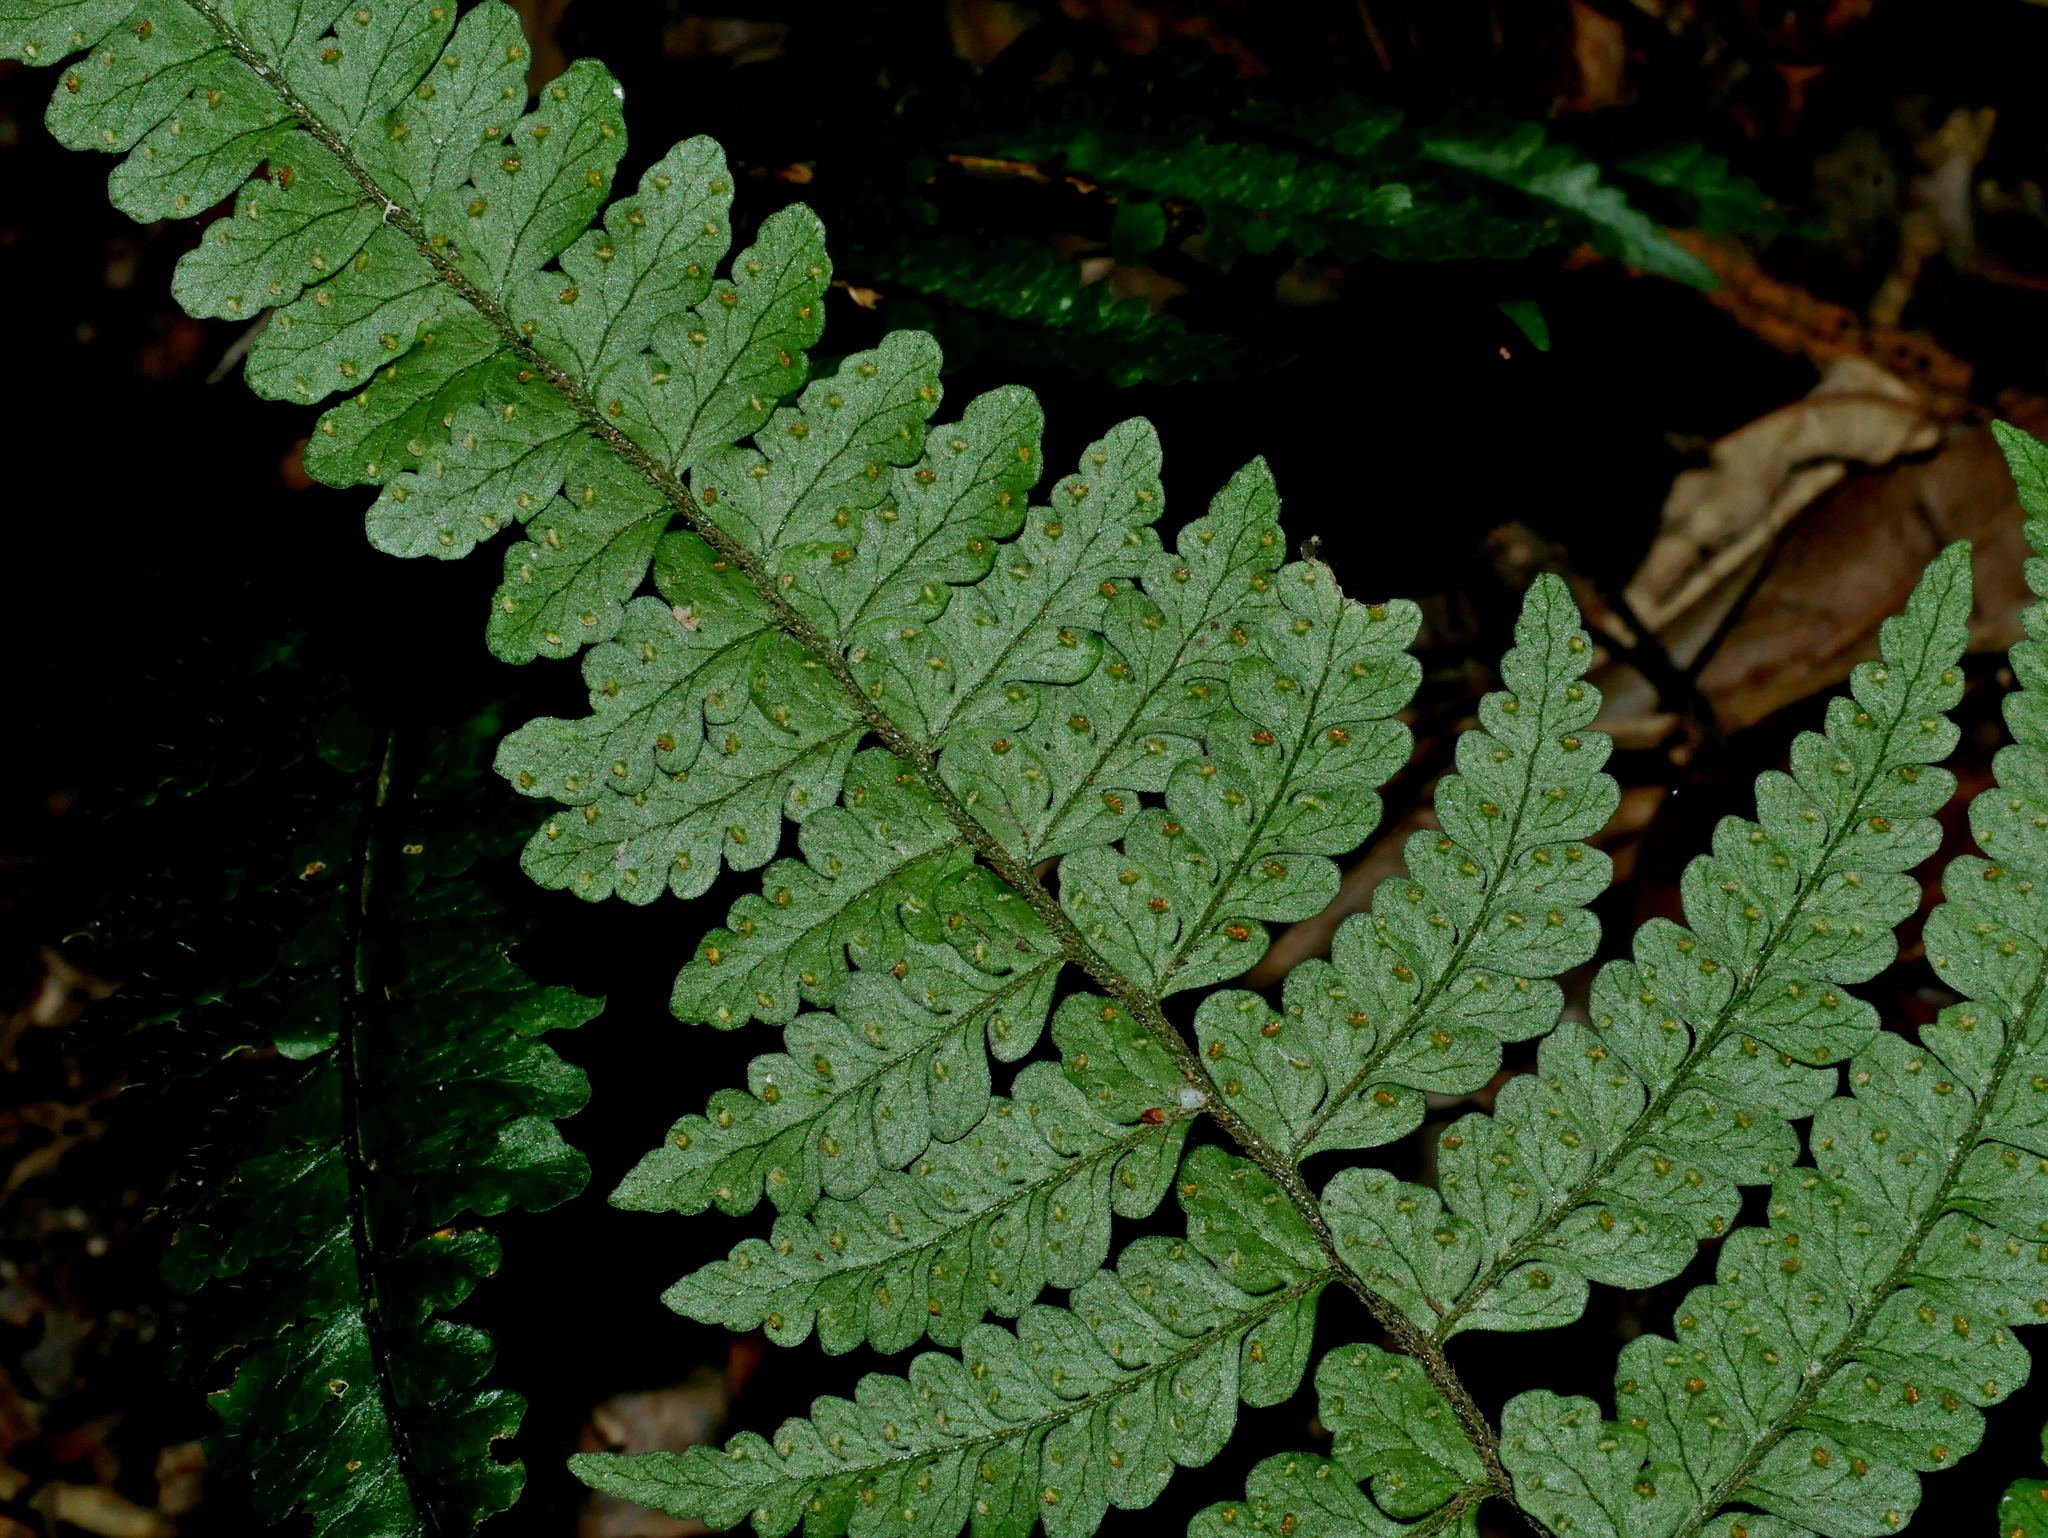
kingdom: Plantae
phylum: Tracheophyta
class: Polypodiopsida
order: Polypodiales
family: Dennstaedtiaceae
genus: Microlepia
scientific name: Microlepia obtusiloba
